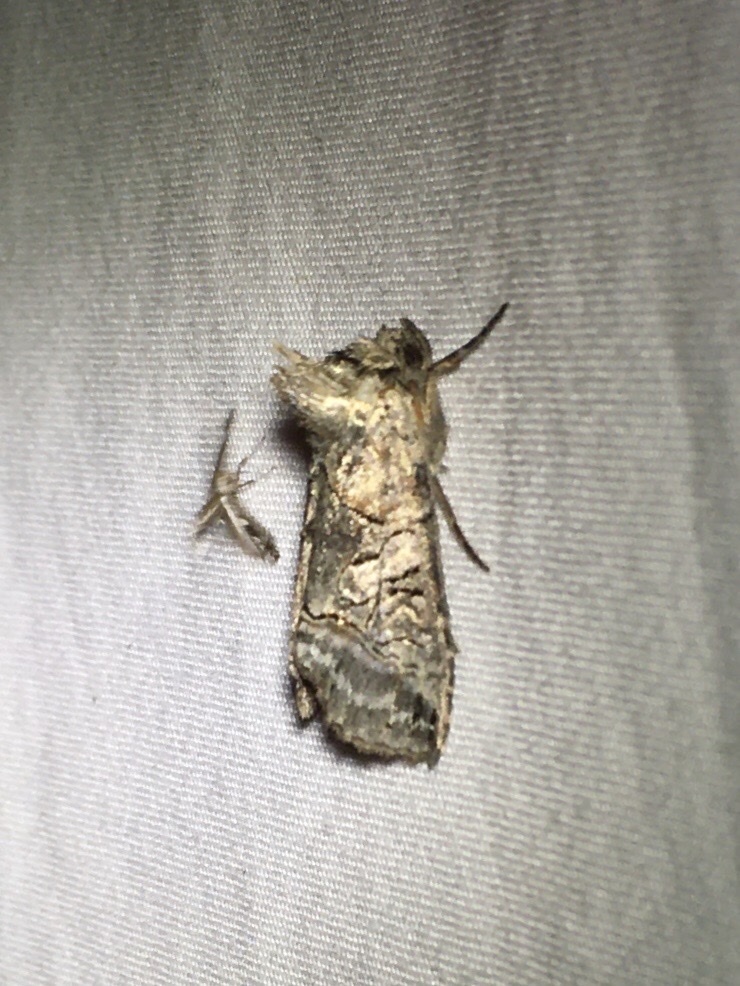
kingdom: Animalia
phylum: Arthropoda
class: Insecta
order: Lepidoptera
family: Noctuidae
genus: Abrostola
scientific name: Abrostola urentis
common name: Spectacled nettle moth
